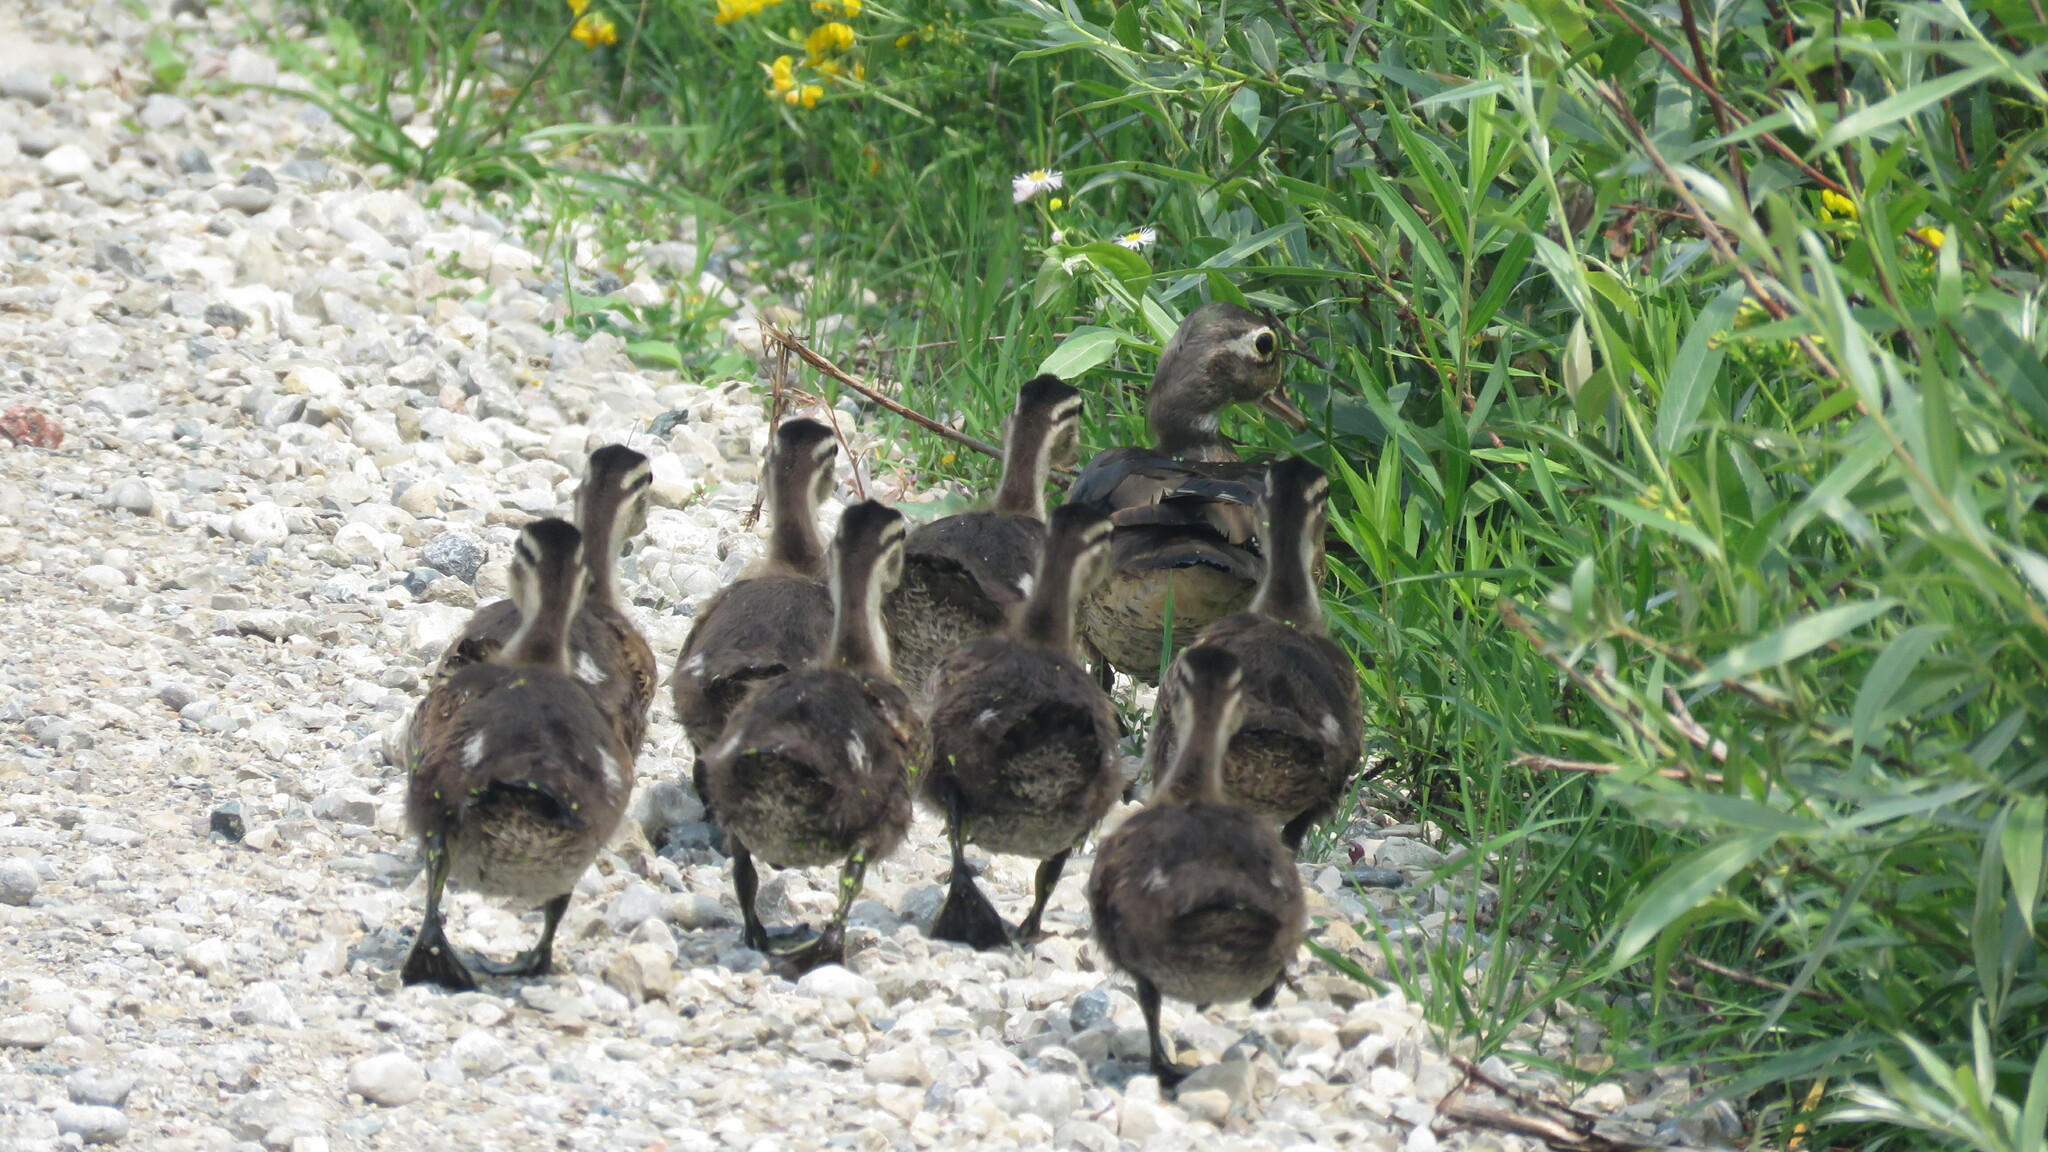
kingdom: Animalia
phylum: Chordata
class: Aves
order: Anseriformes
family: Anatidae
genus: Aix
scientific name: Aix sponsa
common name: Wood duck
